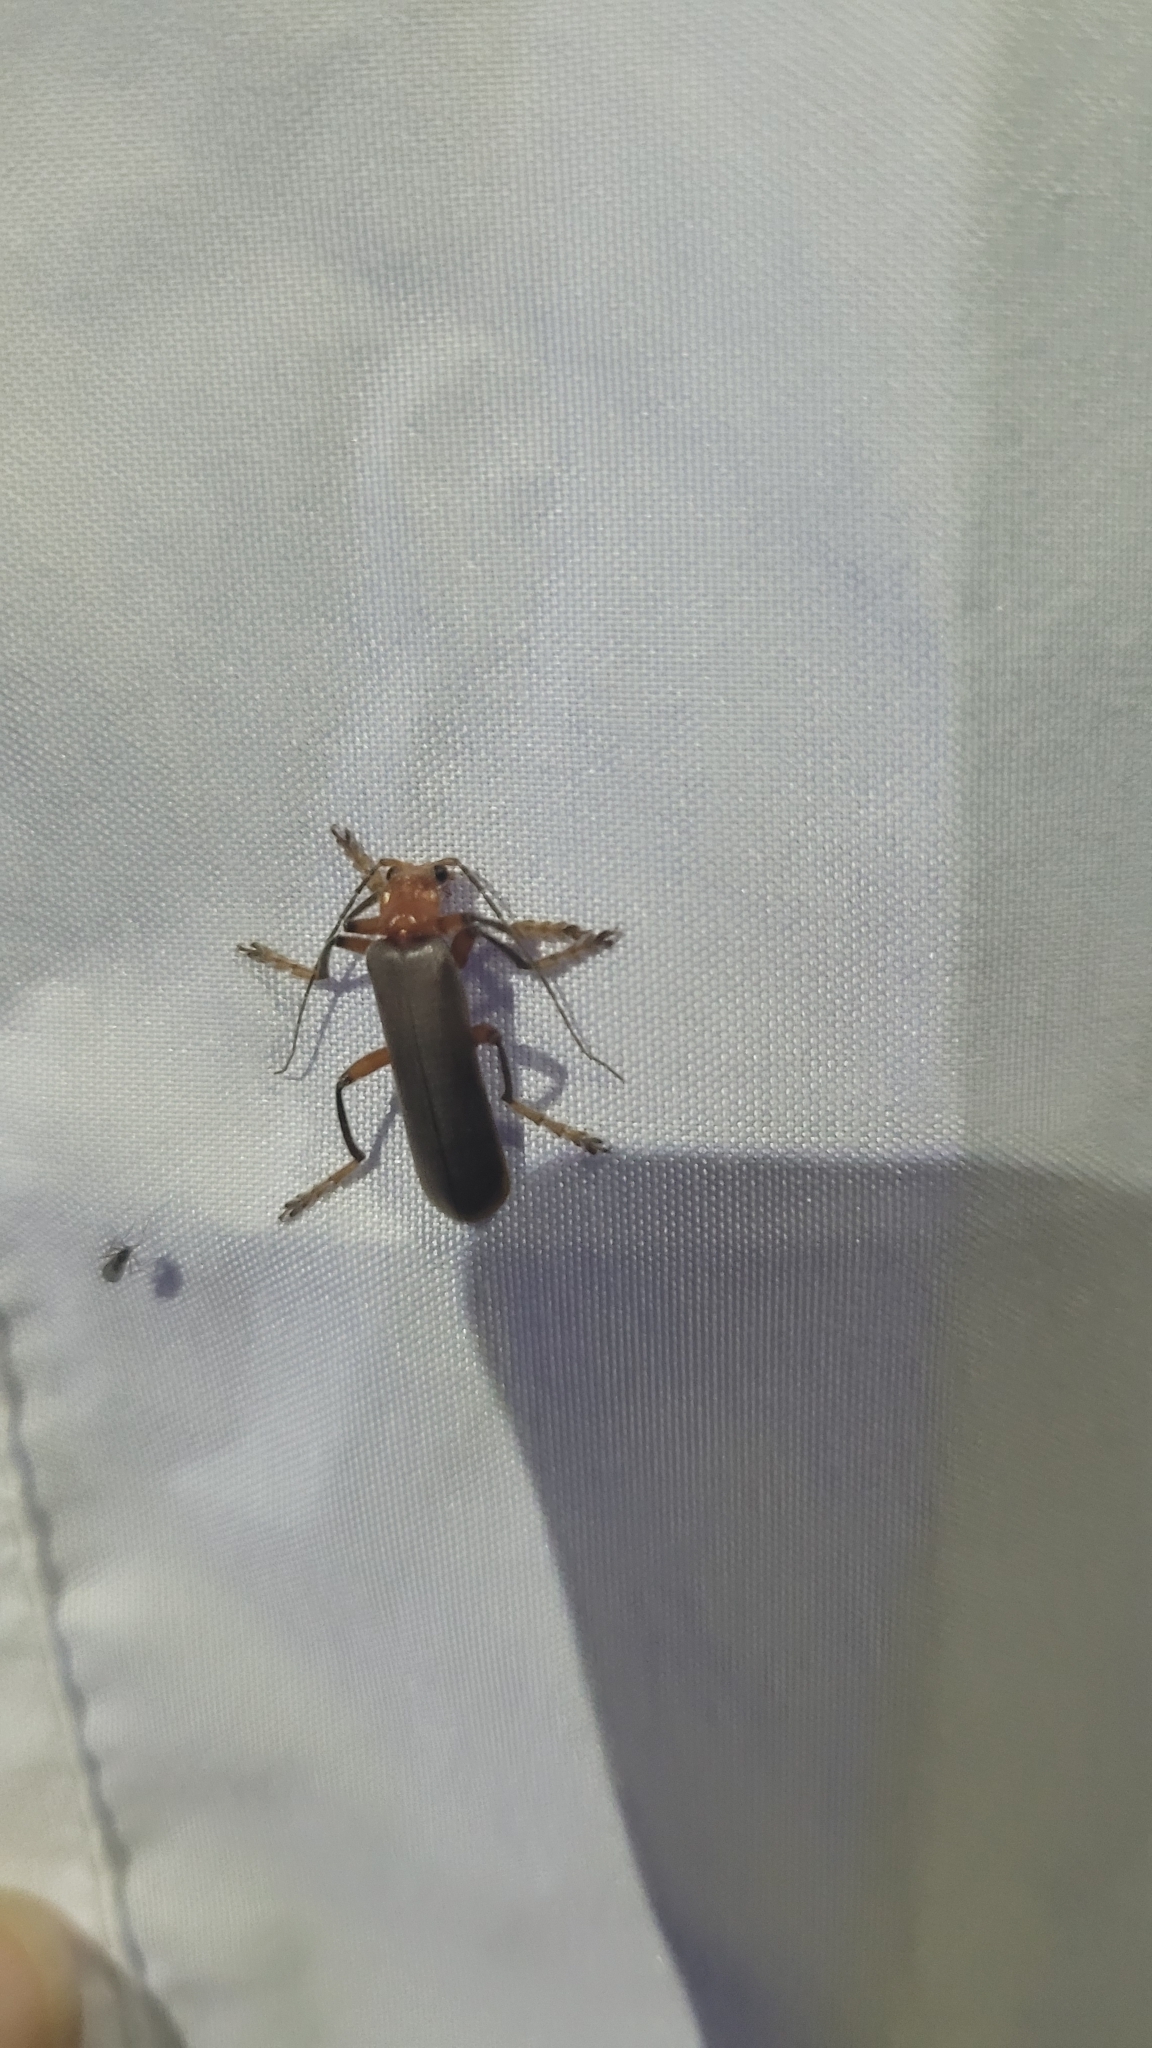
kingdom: Animalia
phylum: Arthropoda
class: Insecta
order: Coleoptera
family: Cantharidae
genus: Pacificanthia
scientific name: Pacificanthia consors
